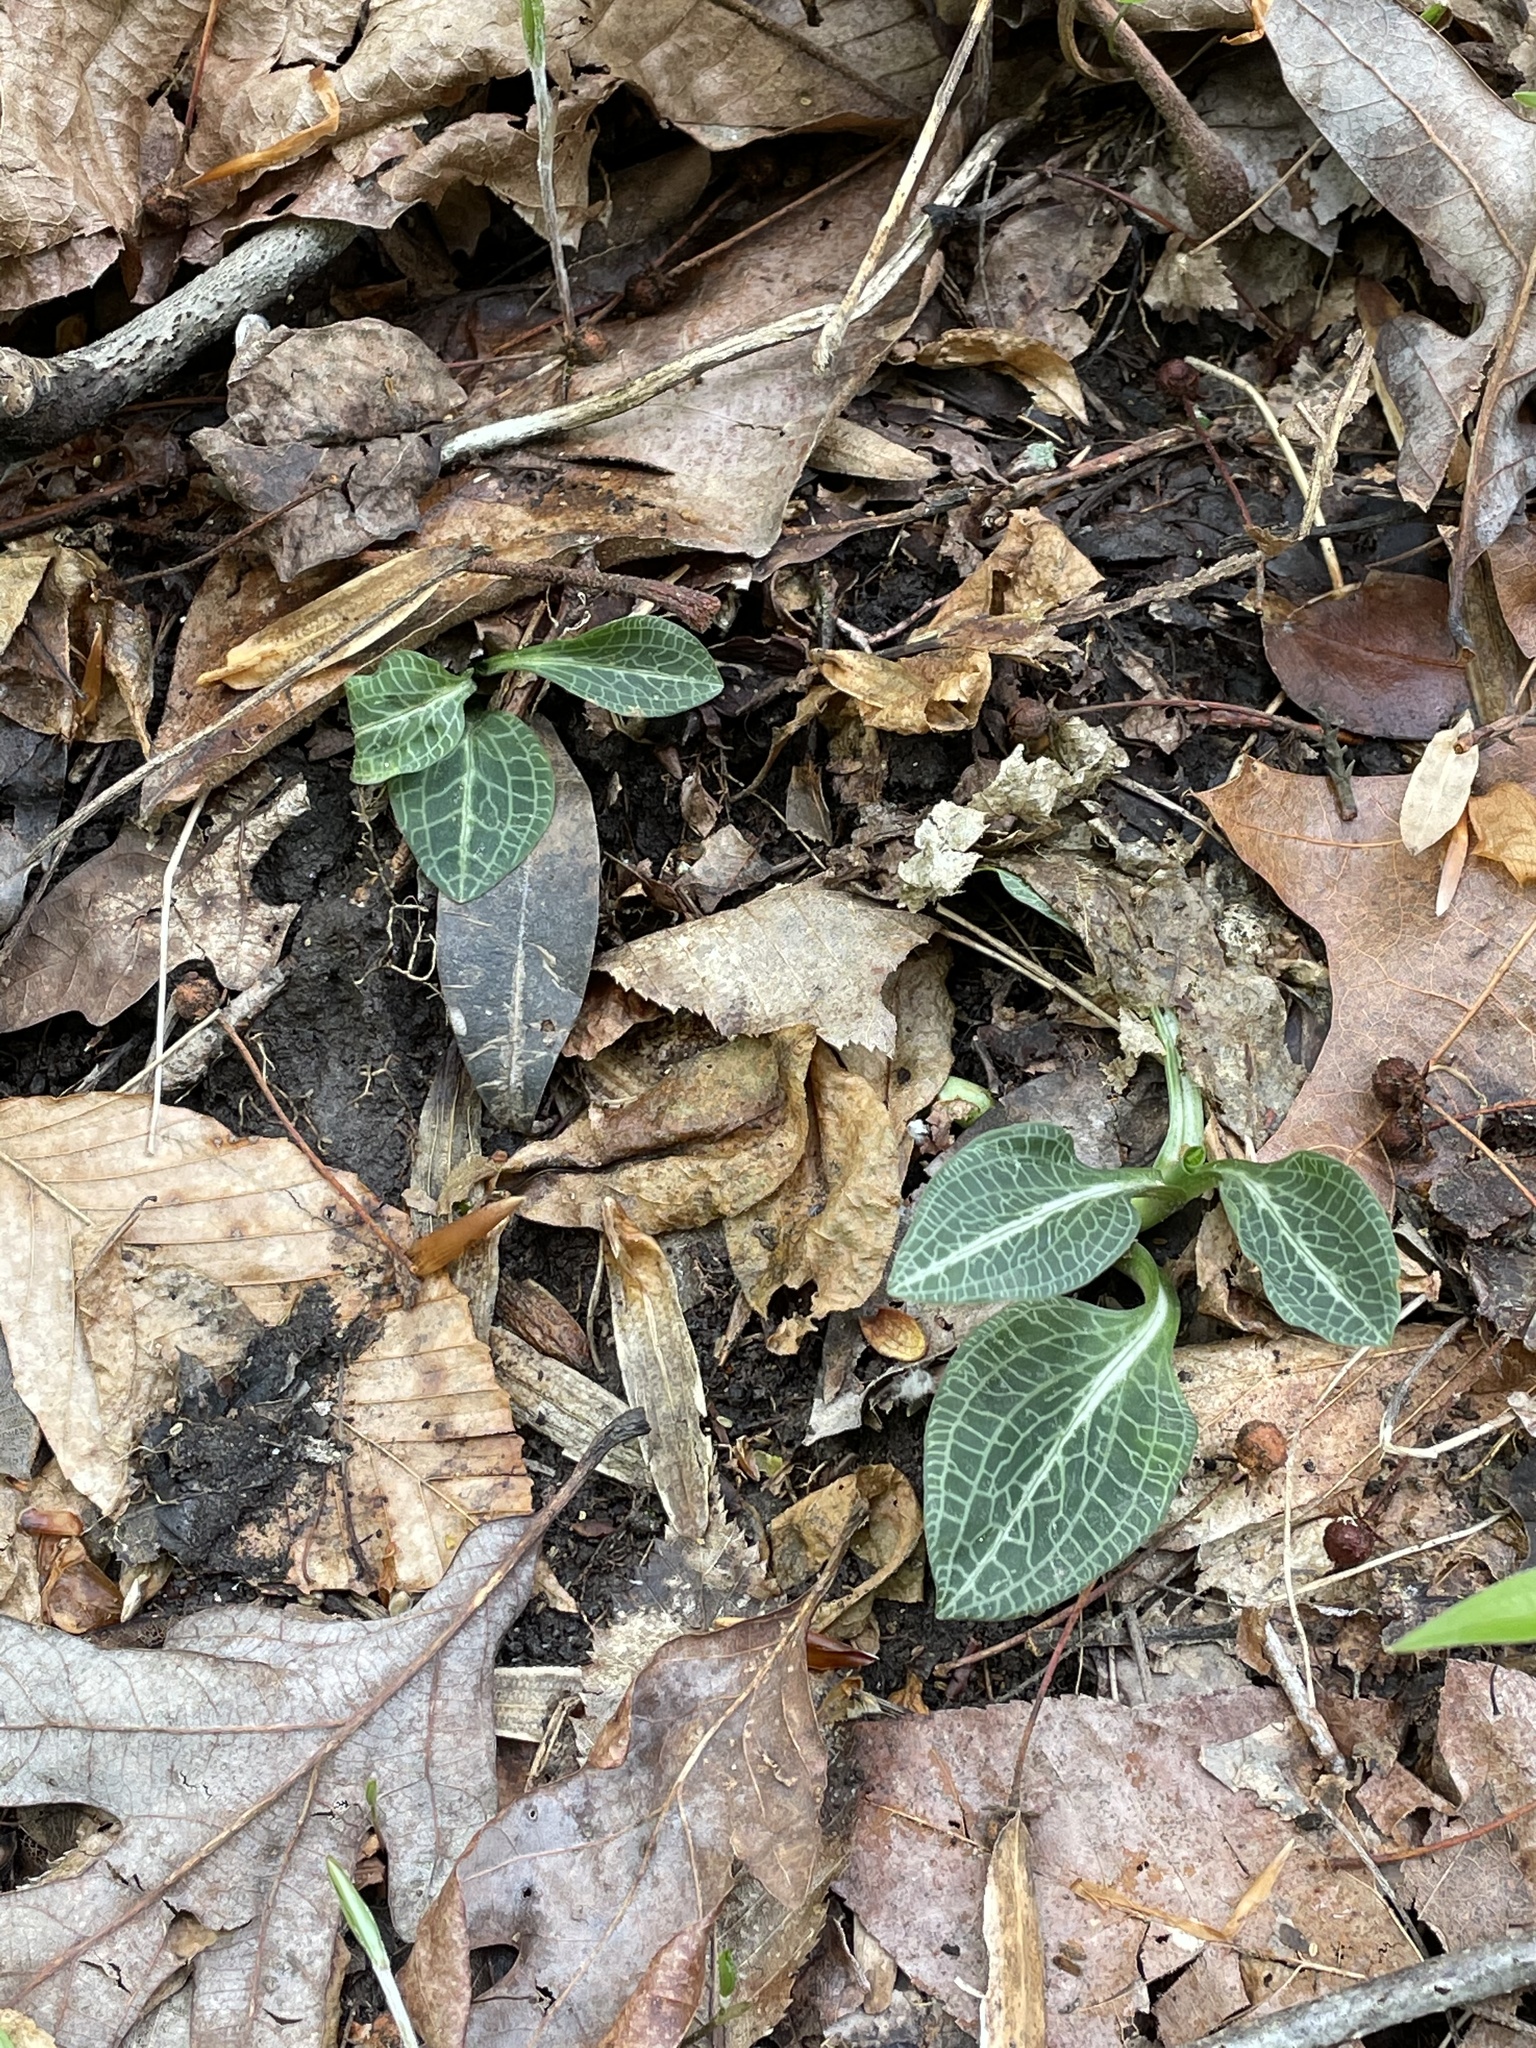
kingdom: Plantae
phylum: Tracheophyta
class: Liliopsida
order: Asparagales
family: Orchidaceae
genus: Goodyera
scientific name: Goodyera pubescens
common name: Downy rattlesnake-plantain
